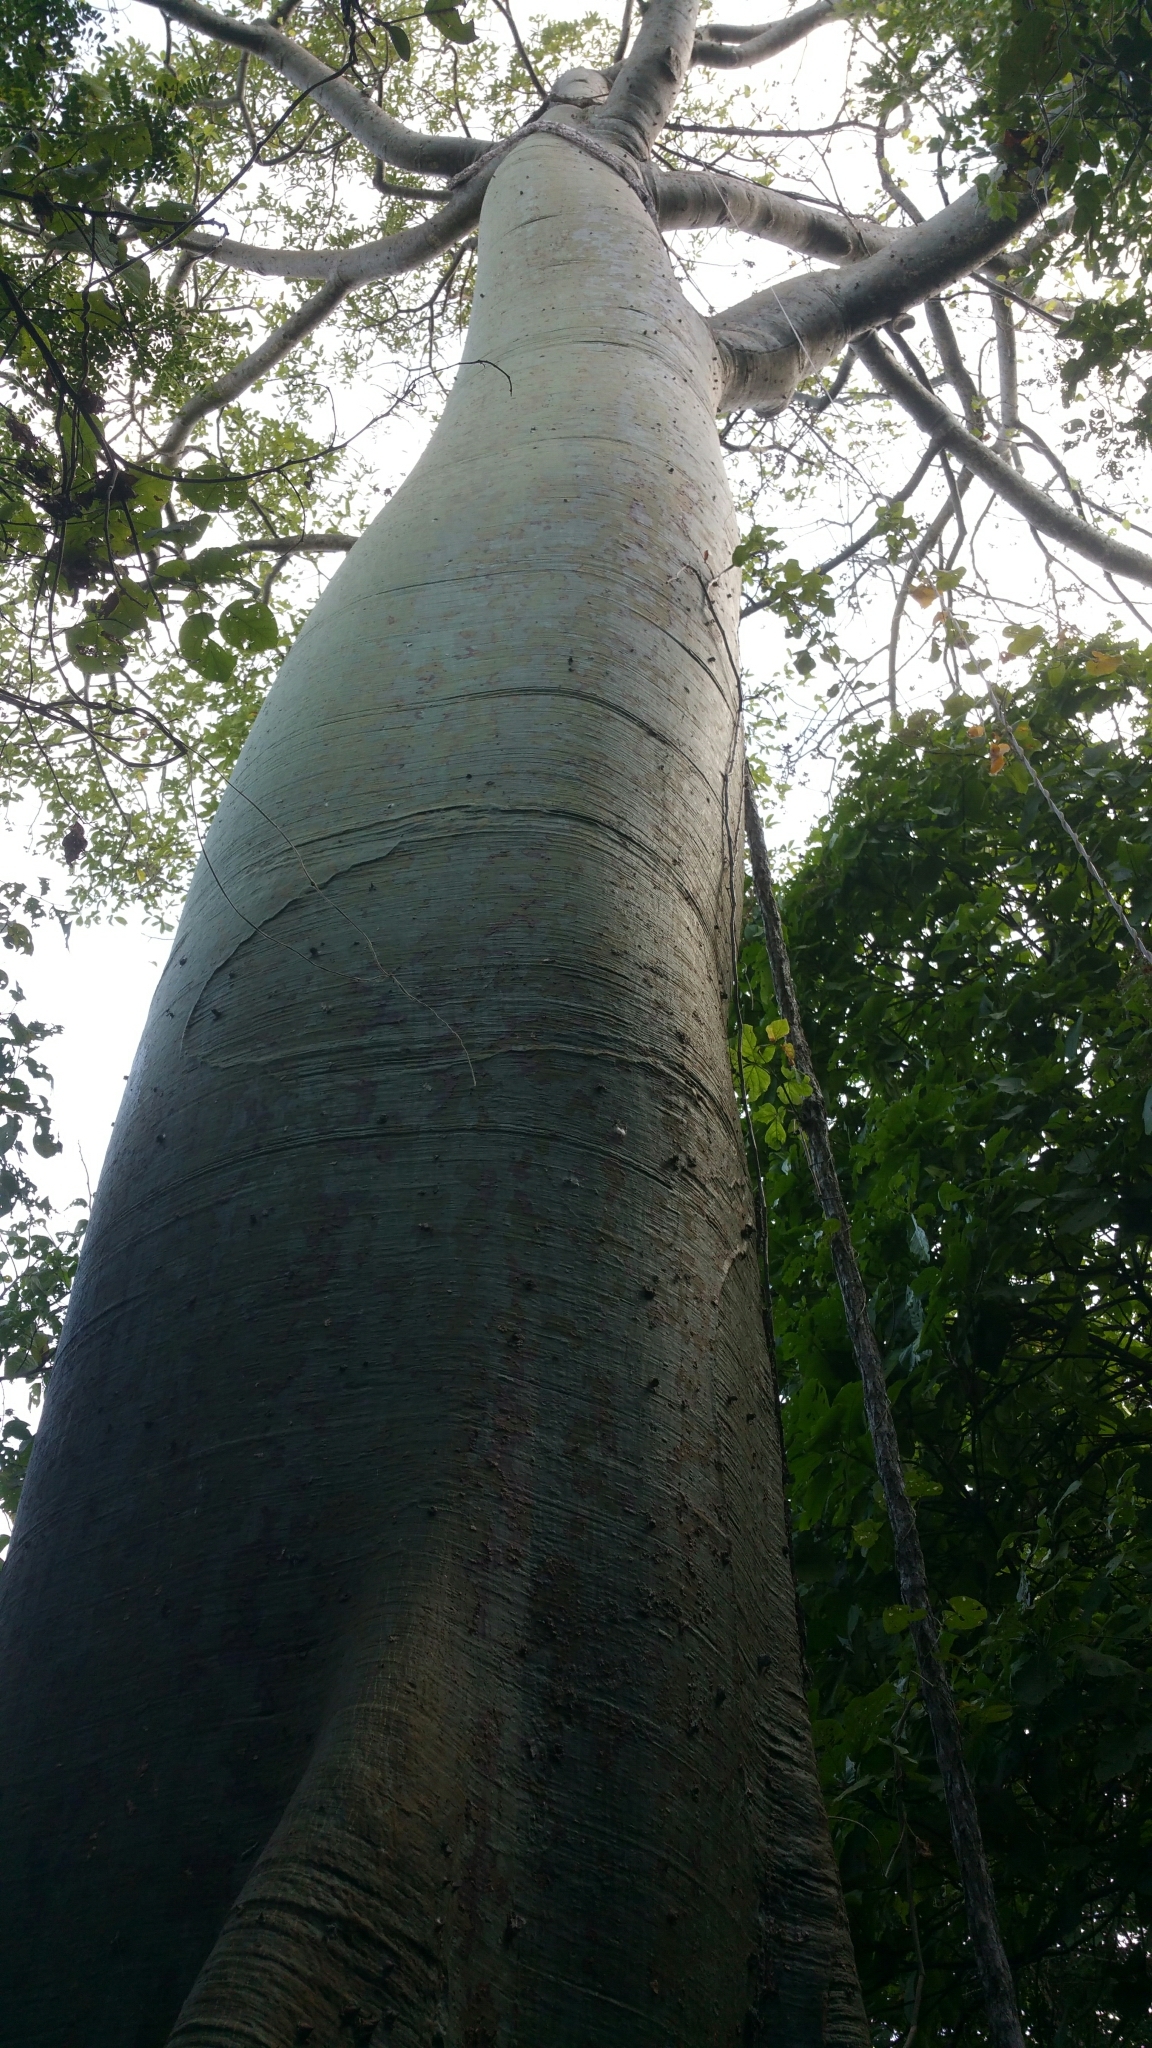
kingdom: Plantae
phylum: Tracheophyta
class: Magnoliopsida
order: Malvales
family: Malvaceae
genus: Ceiba
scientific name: Ceiba trischistandra
